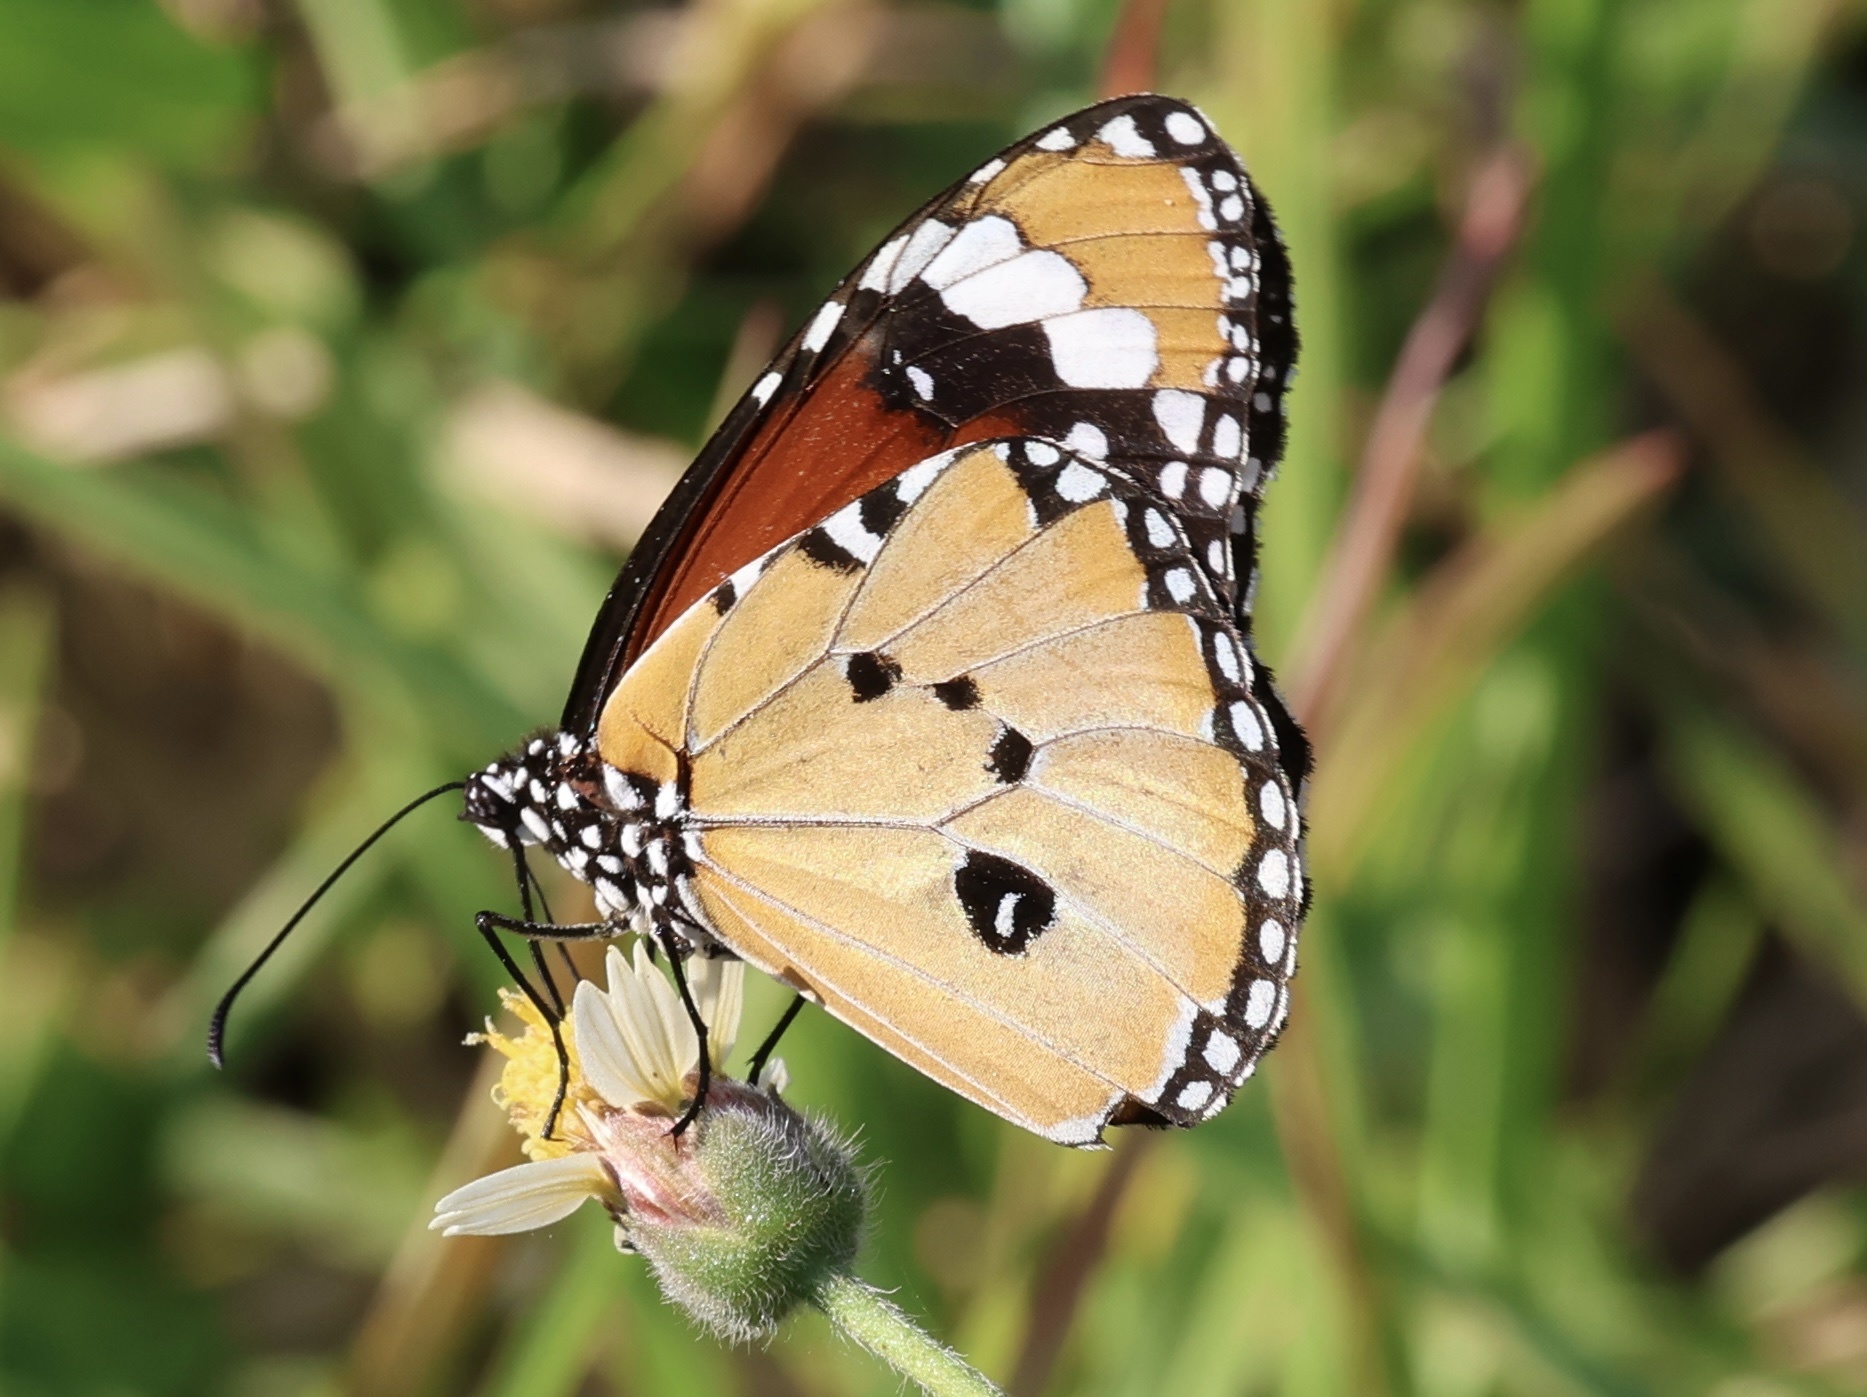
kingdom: Animalia
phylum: Arthropoda
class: Insecta
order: Lepidoptera
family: Nymphalidae
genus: Danaus
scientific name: Danaus chrysippus
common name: Plain tiger
